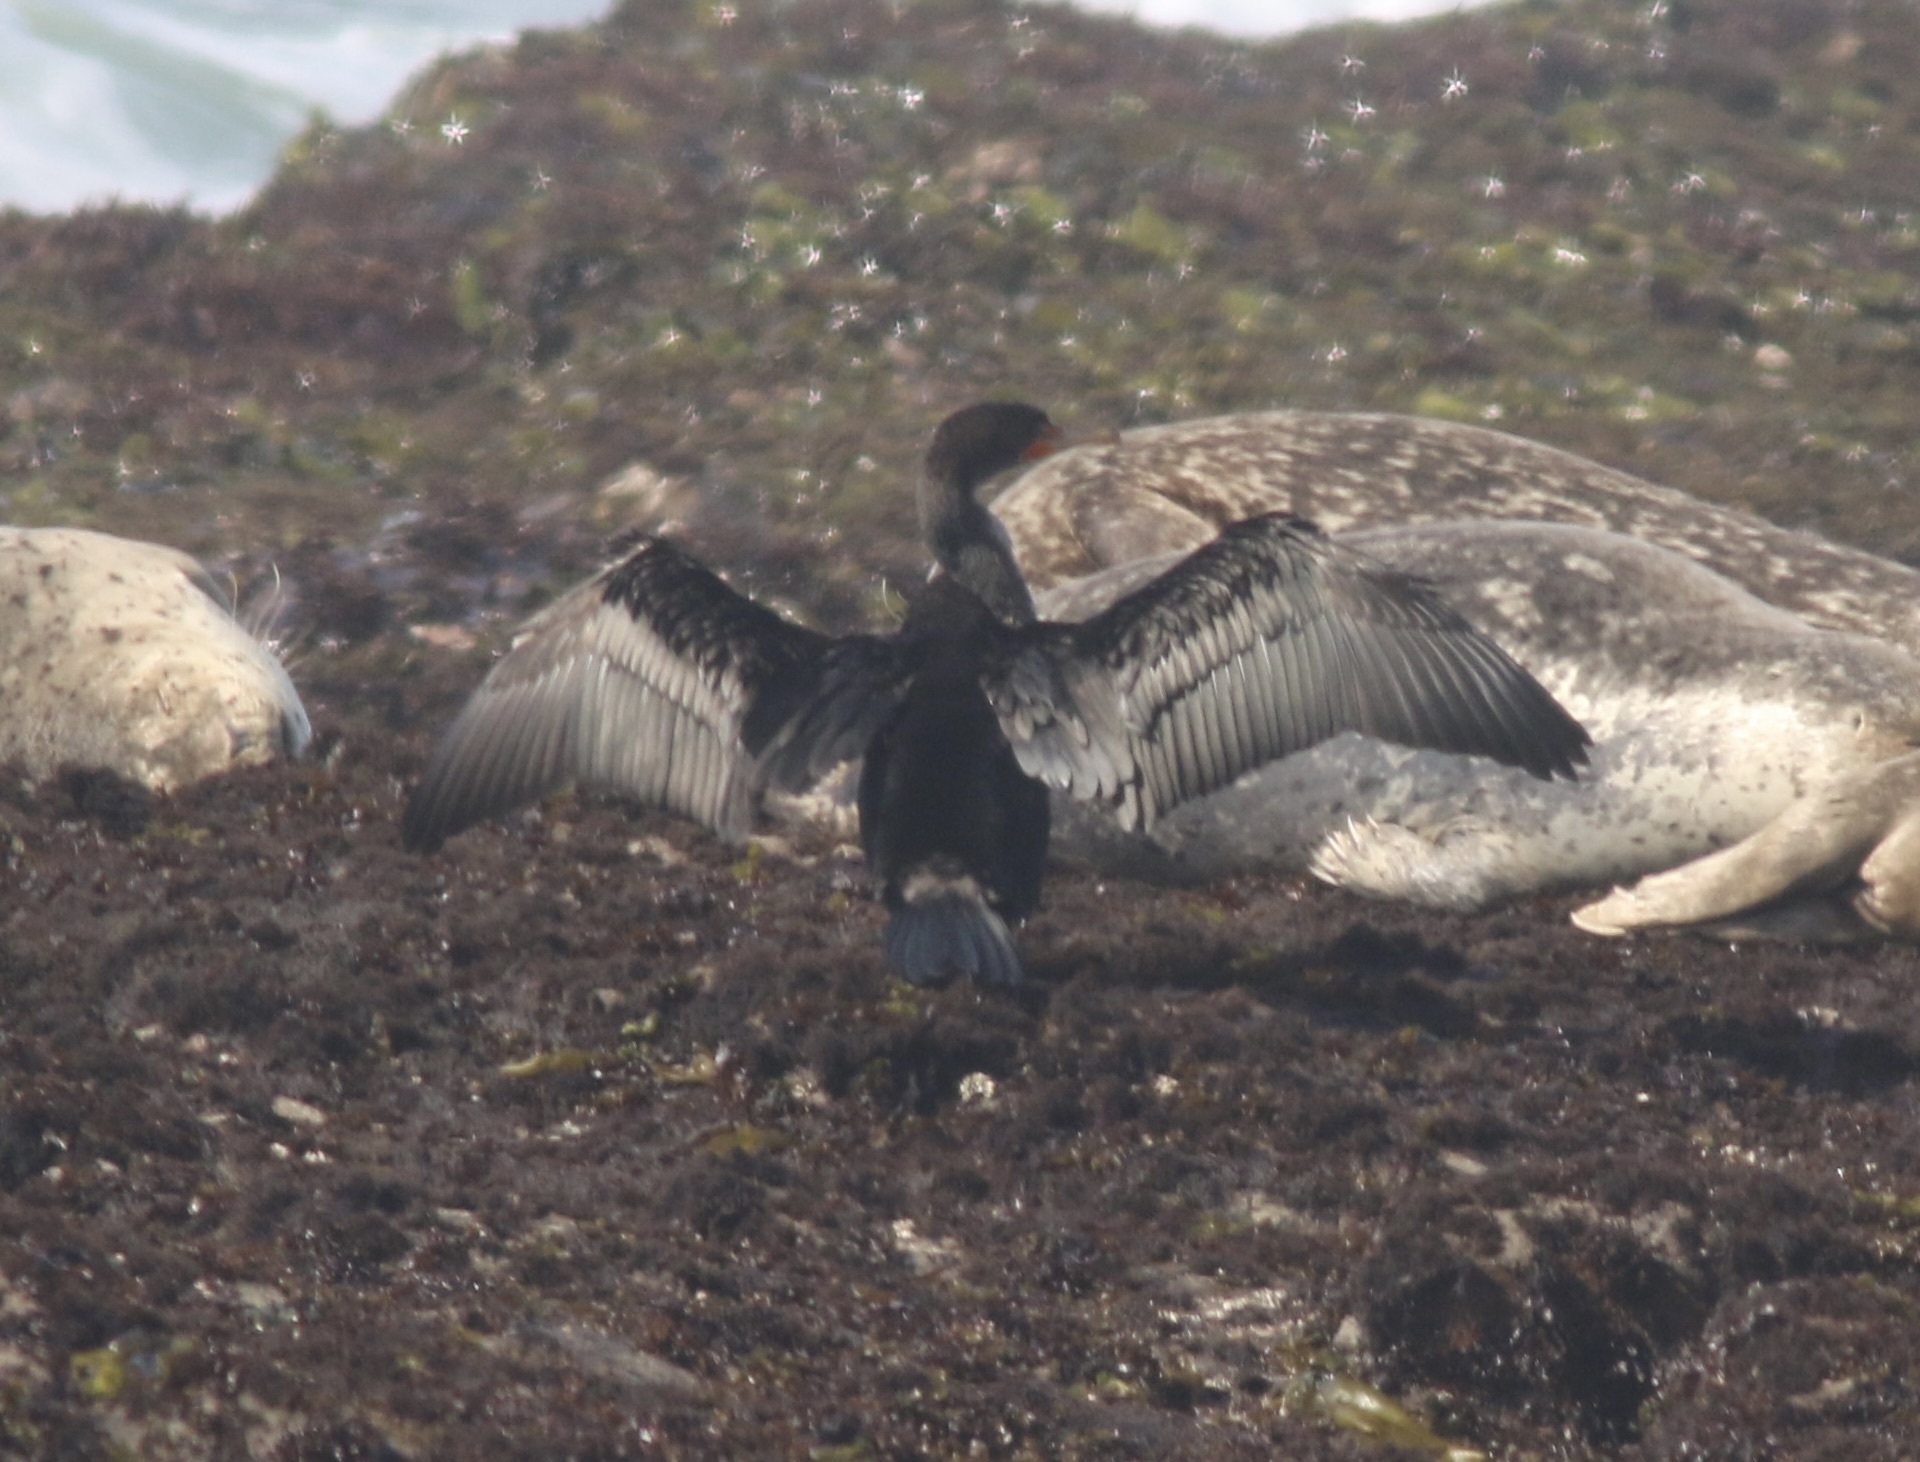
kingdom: Animalia
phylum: Chordata
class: Aves
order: Suliformes
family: Phalacrocoracidae
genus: Phalacrocorax
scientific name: Phalacrocorax auritus
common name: Double-crested cormorant
